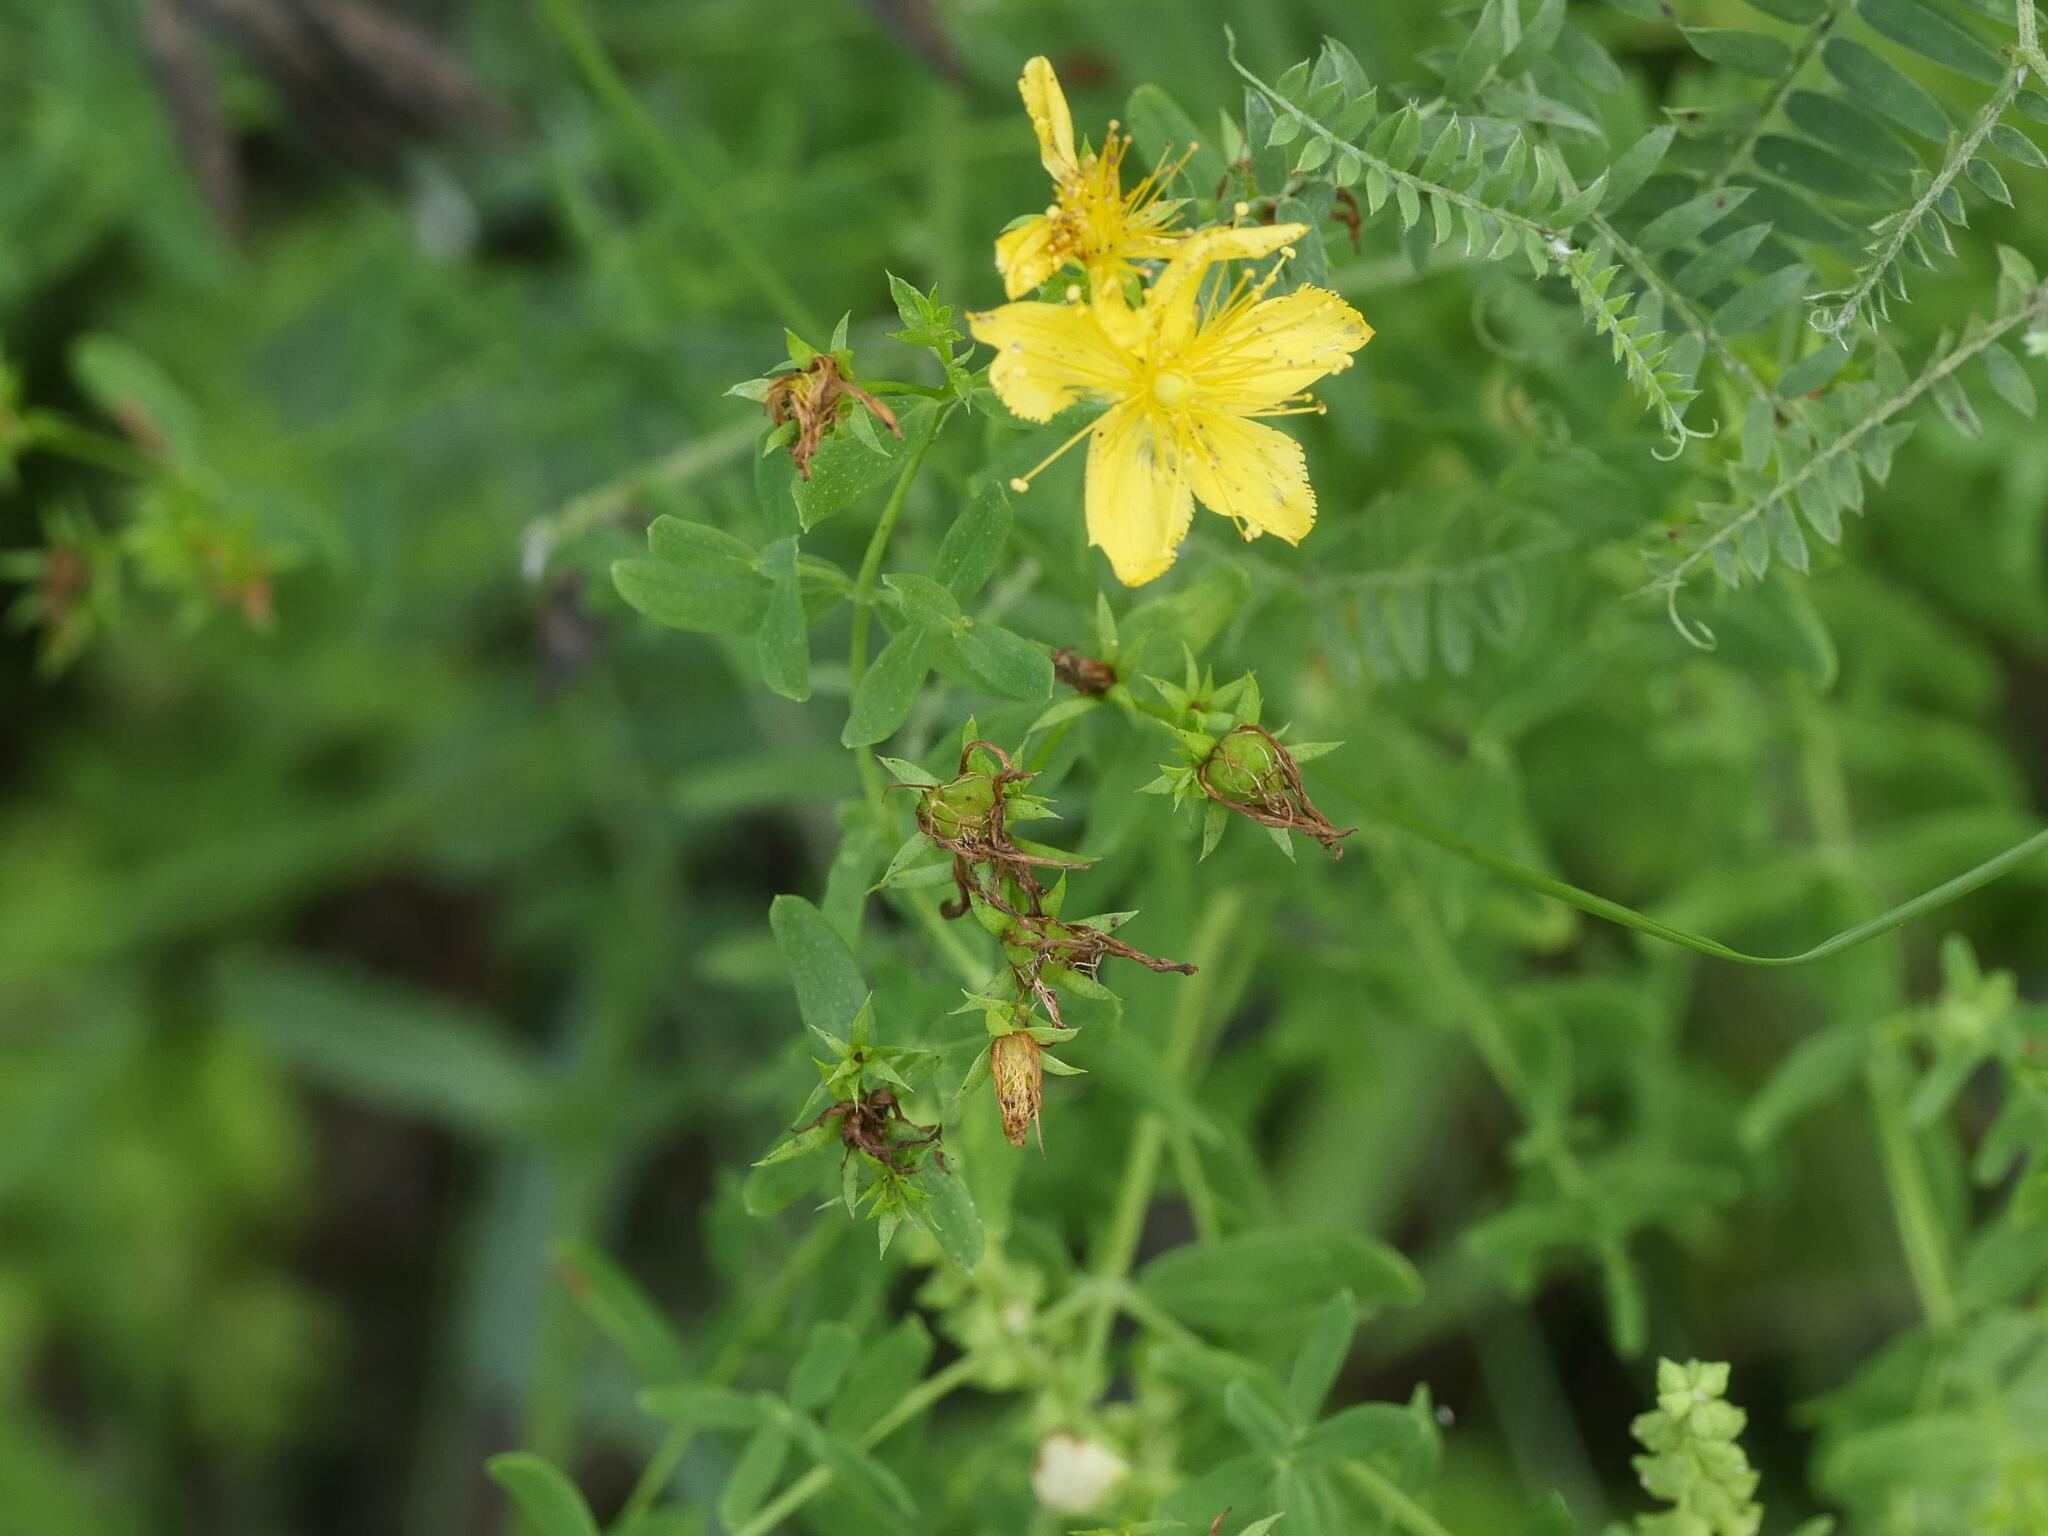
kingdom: Plantae
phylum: Tracheophyta
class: Magnoliopsida
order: Malpighiales
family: Hypericaceae
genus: Hypericum
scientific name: Hypericum perforatum
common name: Common st. johnswort
